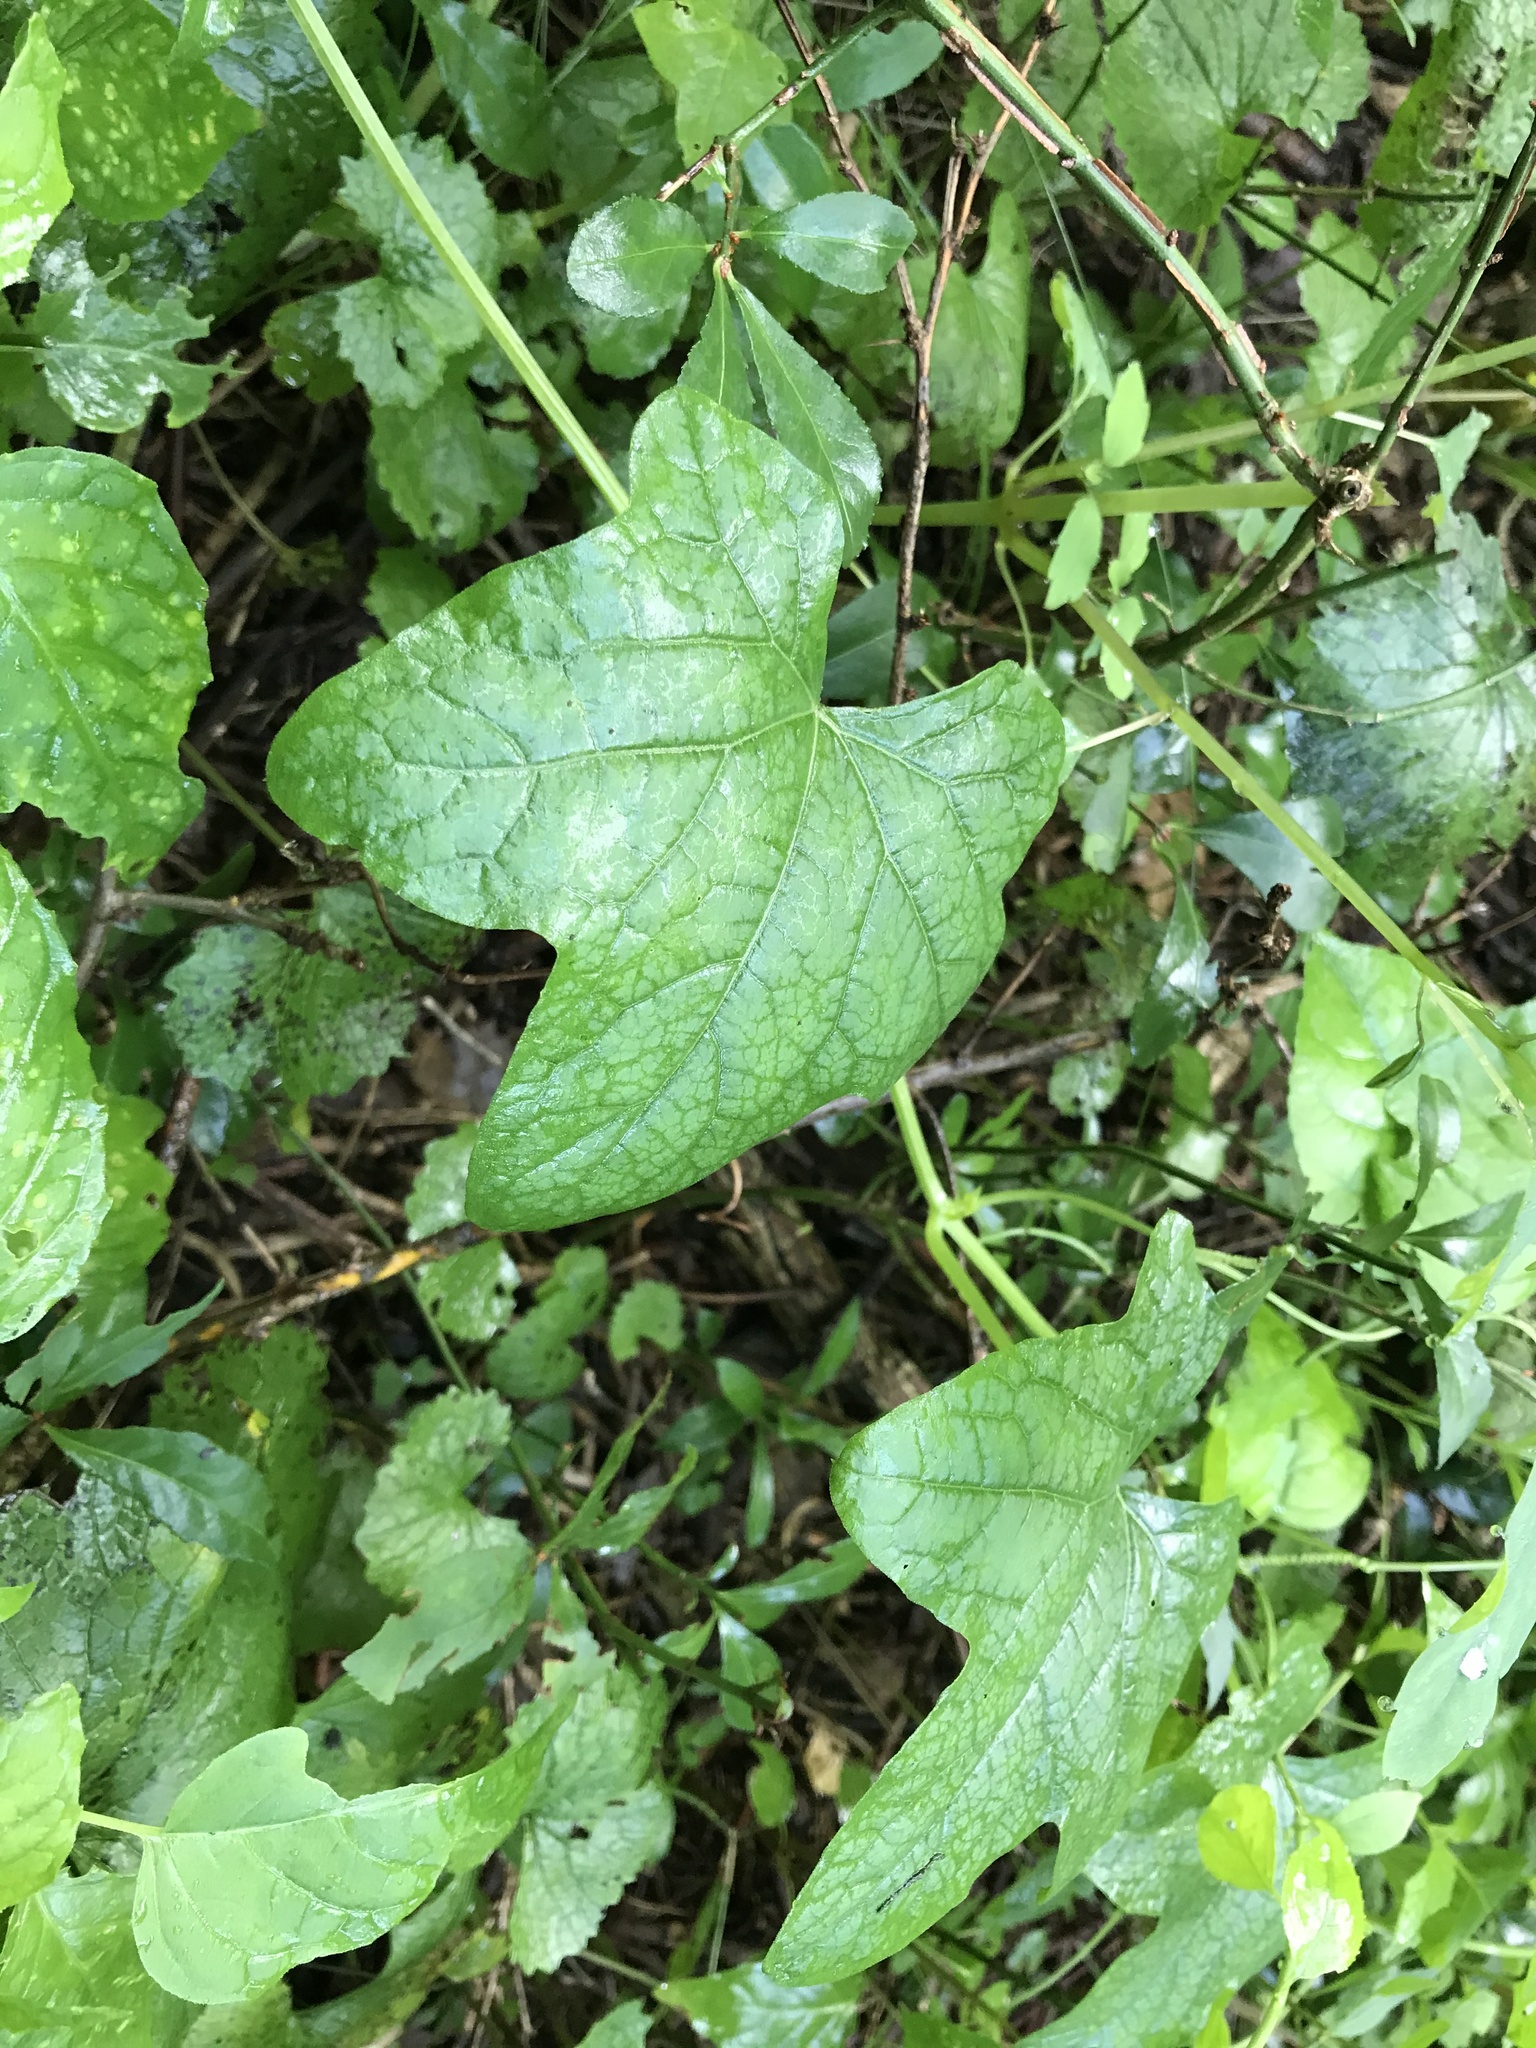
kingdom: Plantae
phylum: Tracheophyta
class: Magnoliopsida
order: Cucurbitales
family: Cucurbitaceae
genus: Sicyos
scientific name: Sicyos angulatus
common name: Angled burr cucumber
